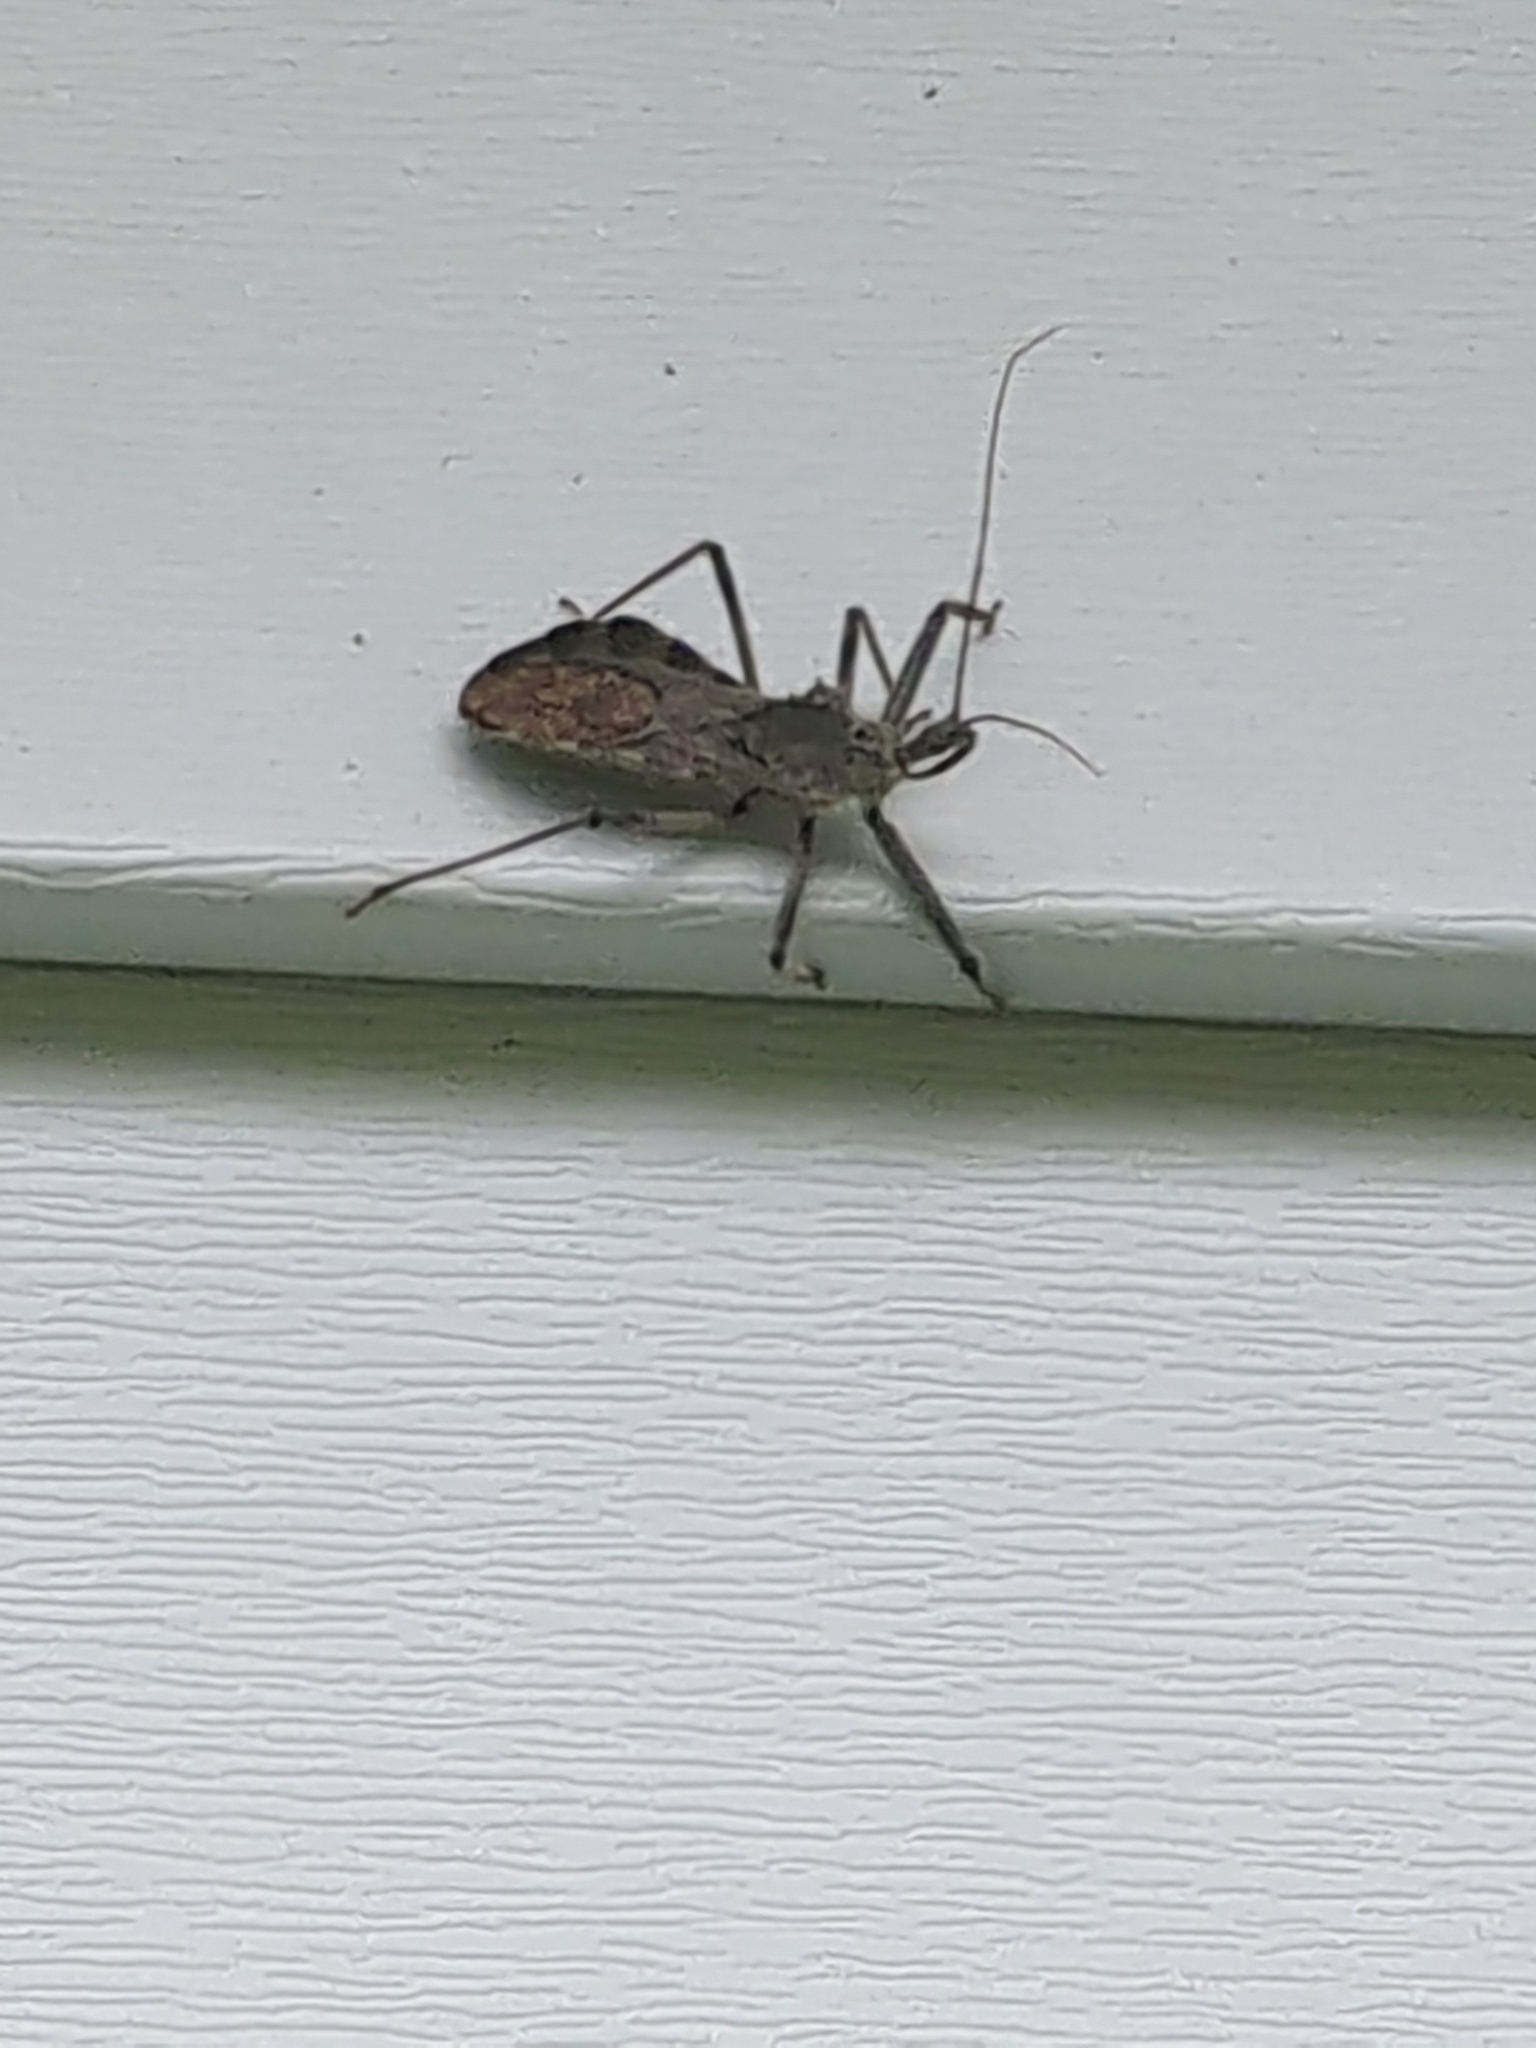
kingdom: Animalia
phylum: Arthropoda
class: Insecta
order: Hemiptera
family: Reduviidae
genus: Arilus
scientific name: Arilus cristatus
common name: North american wheel bug
